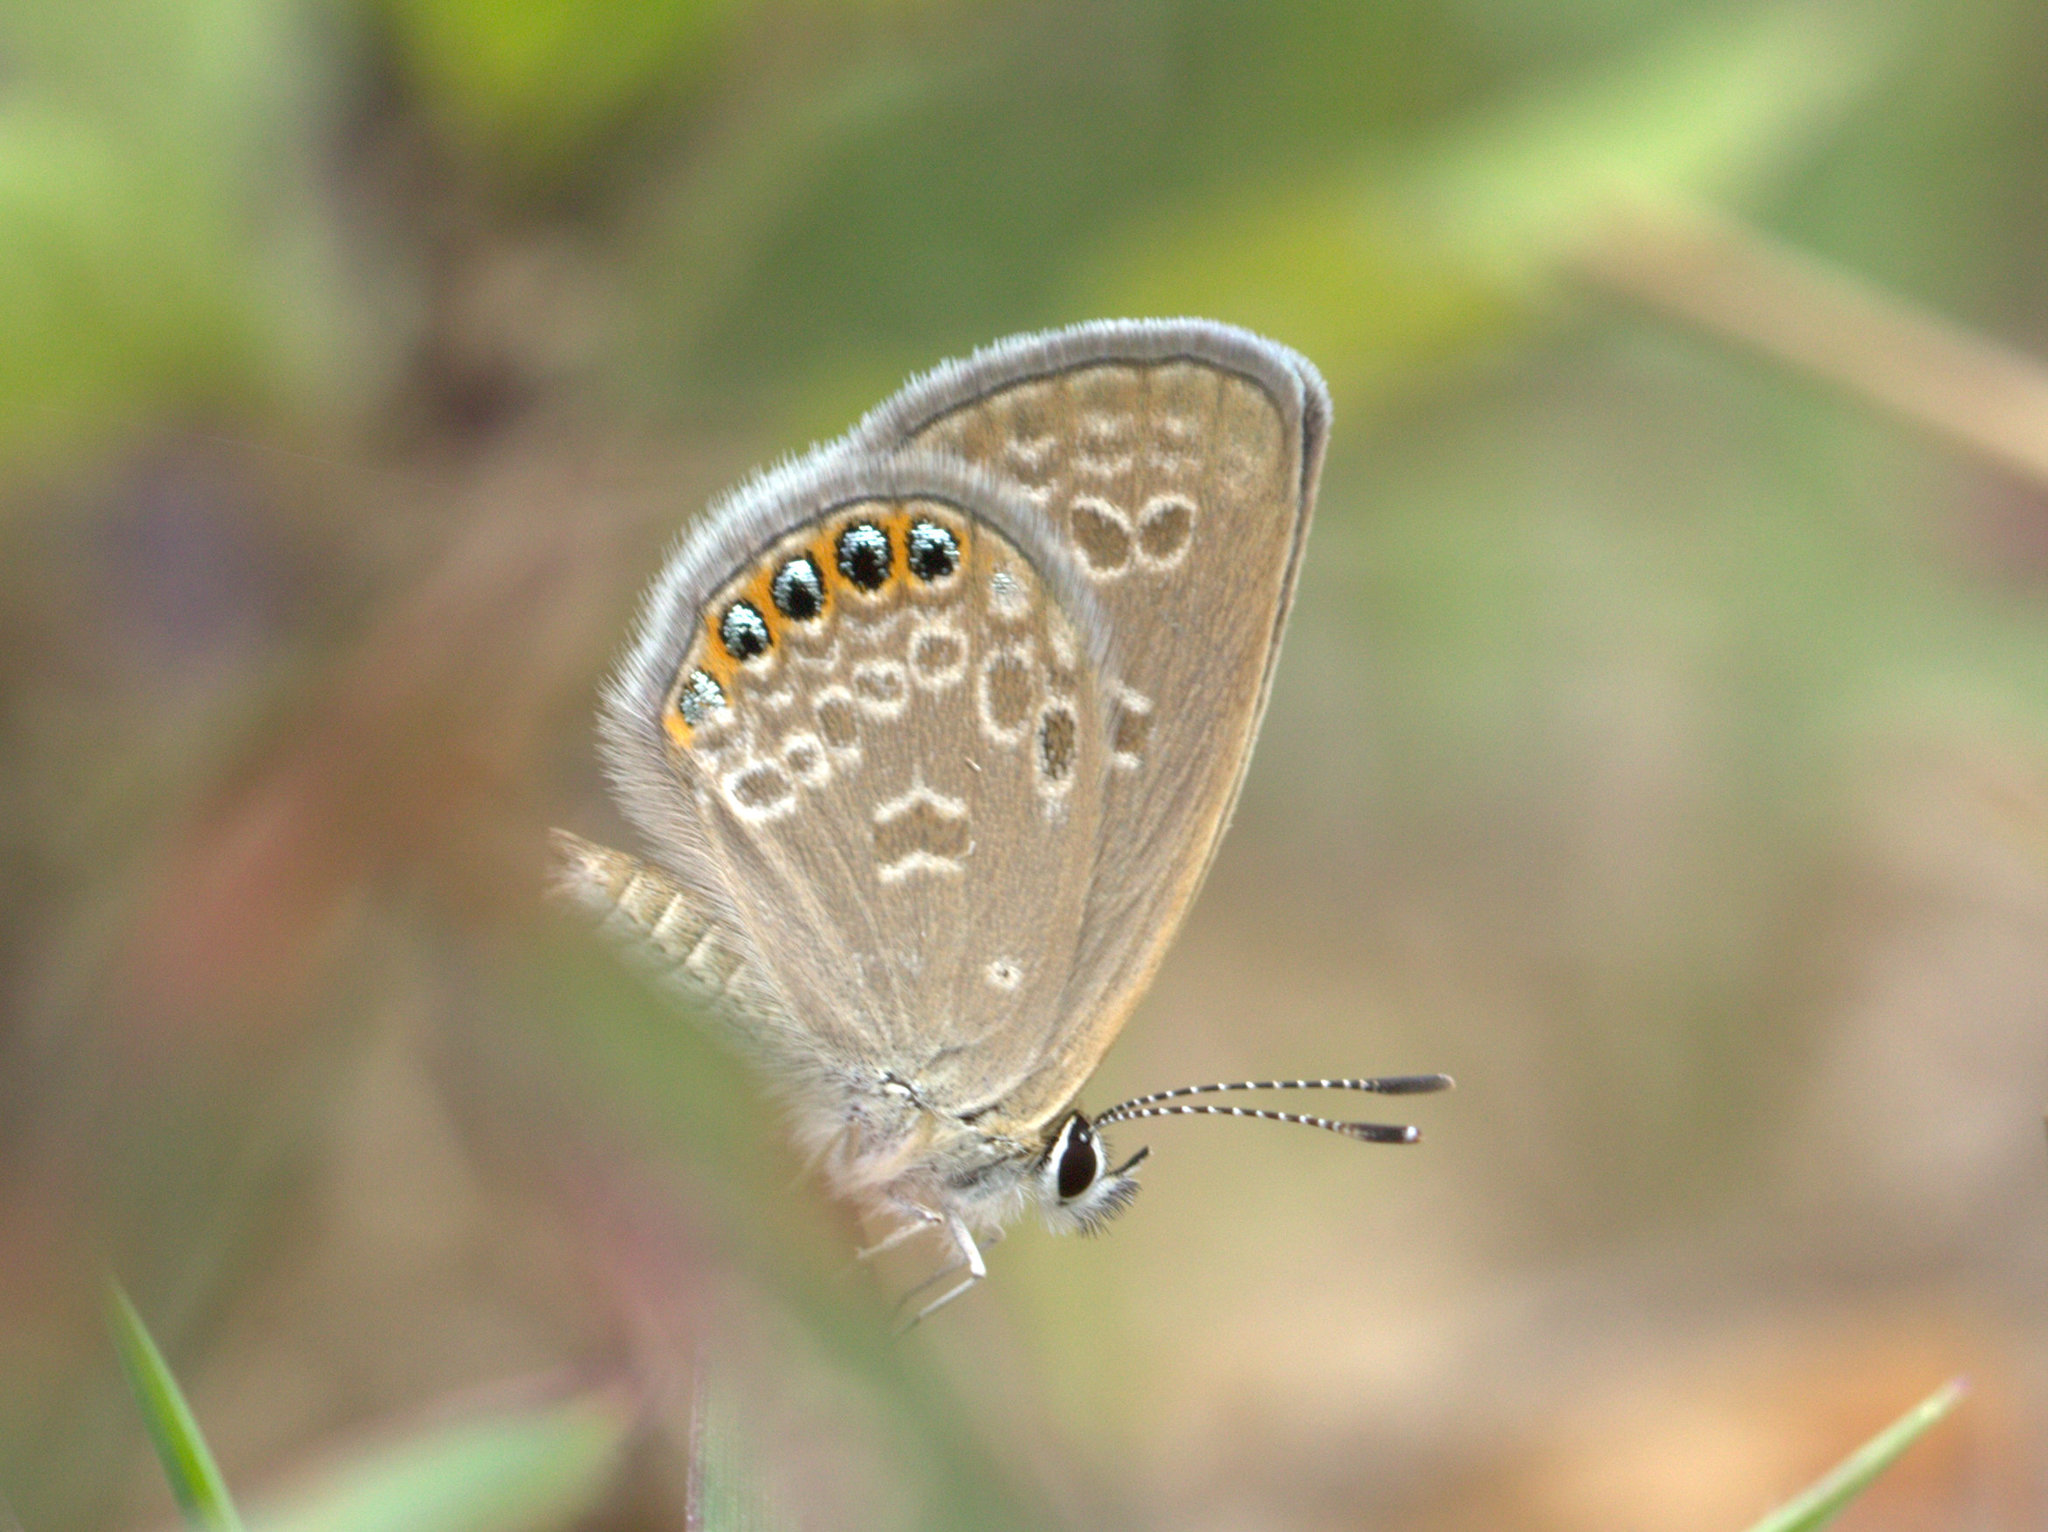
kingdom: Animalia
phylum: Arthropoda
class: Insecta
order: Lepidoptera
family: Lycaenidae
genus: Freyeria
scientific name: Freyeria putli
